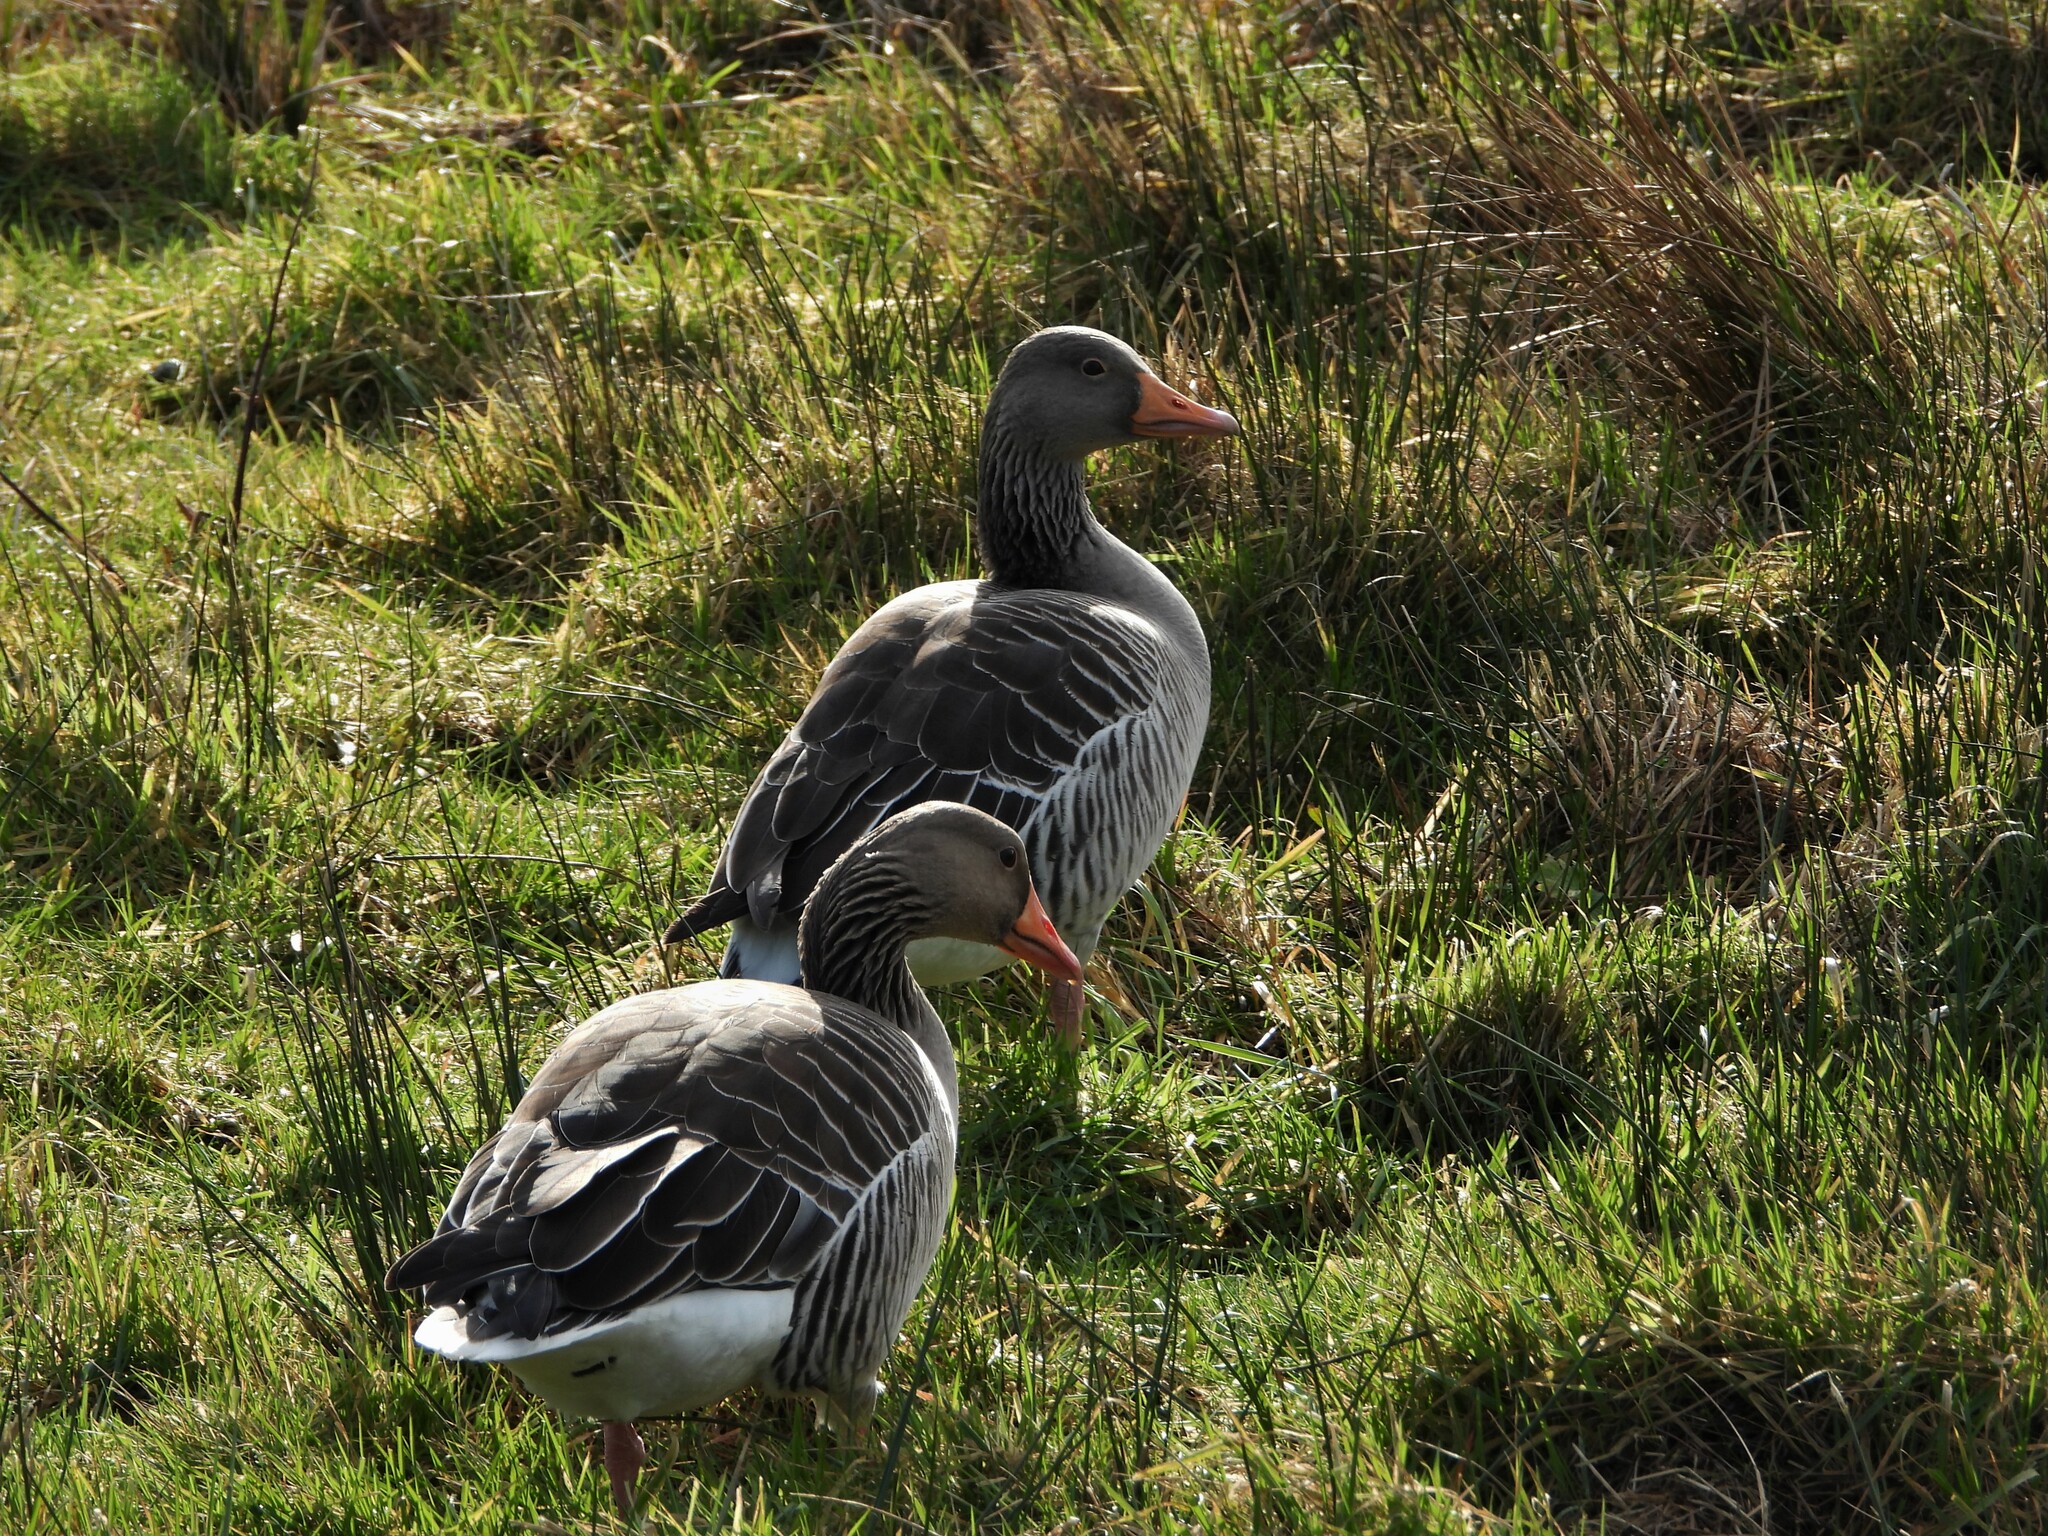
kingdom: Animalia
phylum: Chordata
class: Aves
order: Anseriformes
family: Anatidae
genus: Anser
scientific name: Anser anser
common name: Greylag goose
